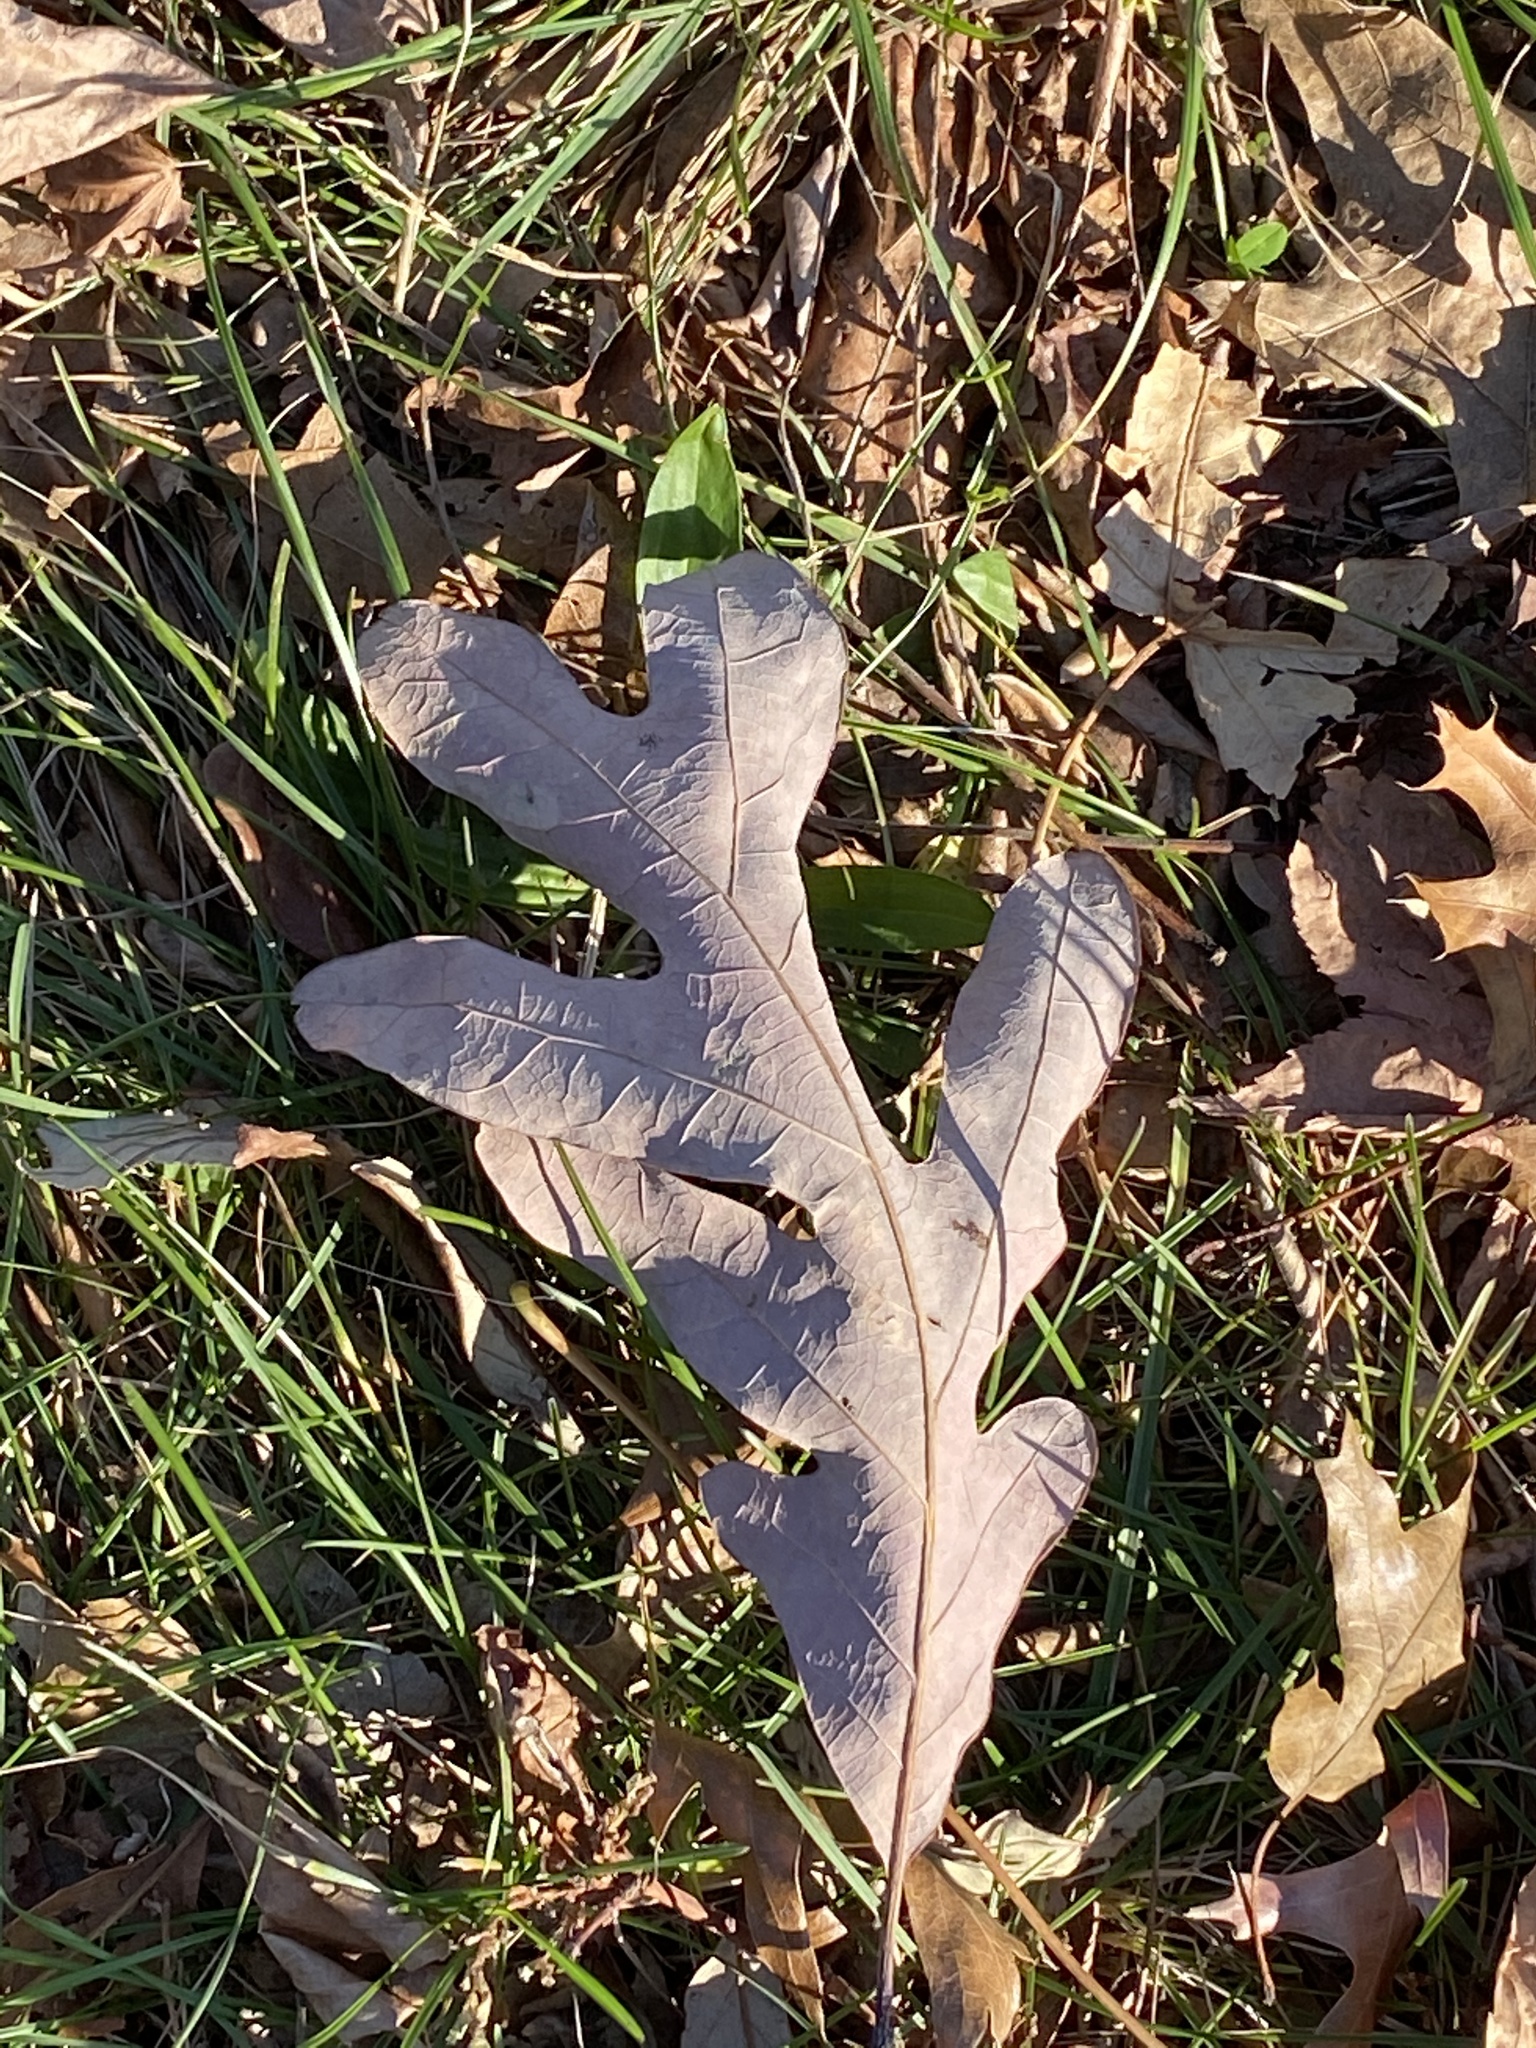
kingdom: Plantae
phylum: Tracheophyta
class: Magnoliopsida
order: Fagales
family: Fagaceae
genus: Quercus
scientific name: Quercus alba
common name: White oak
